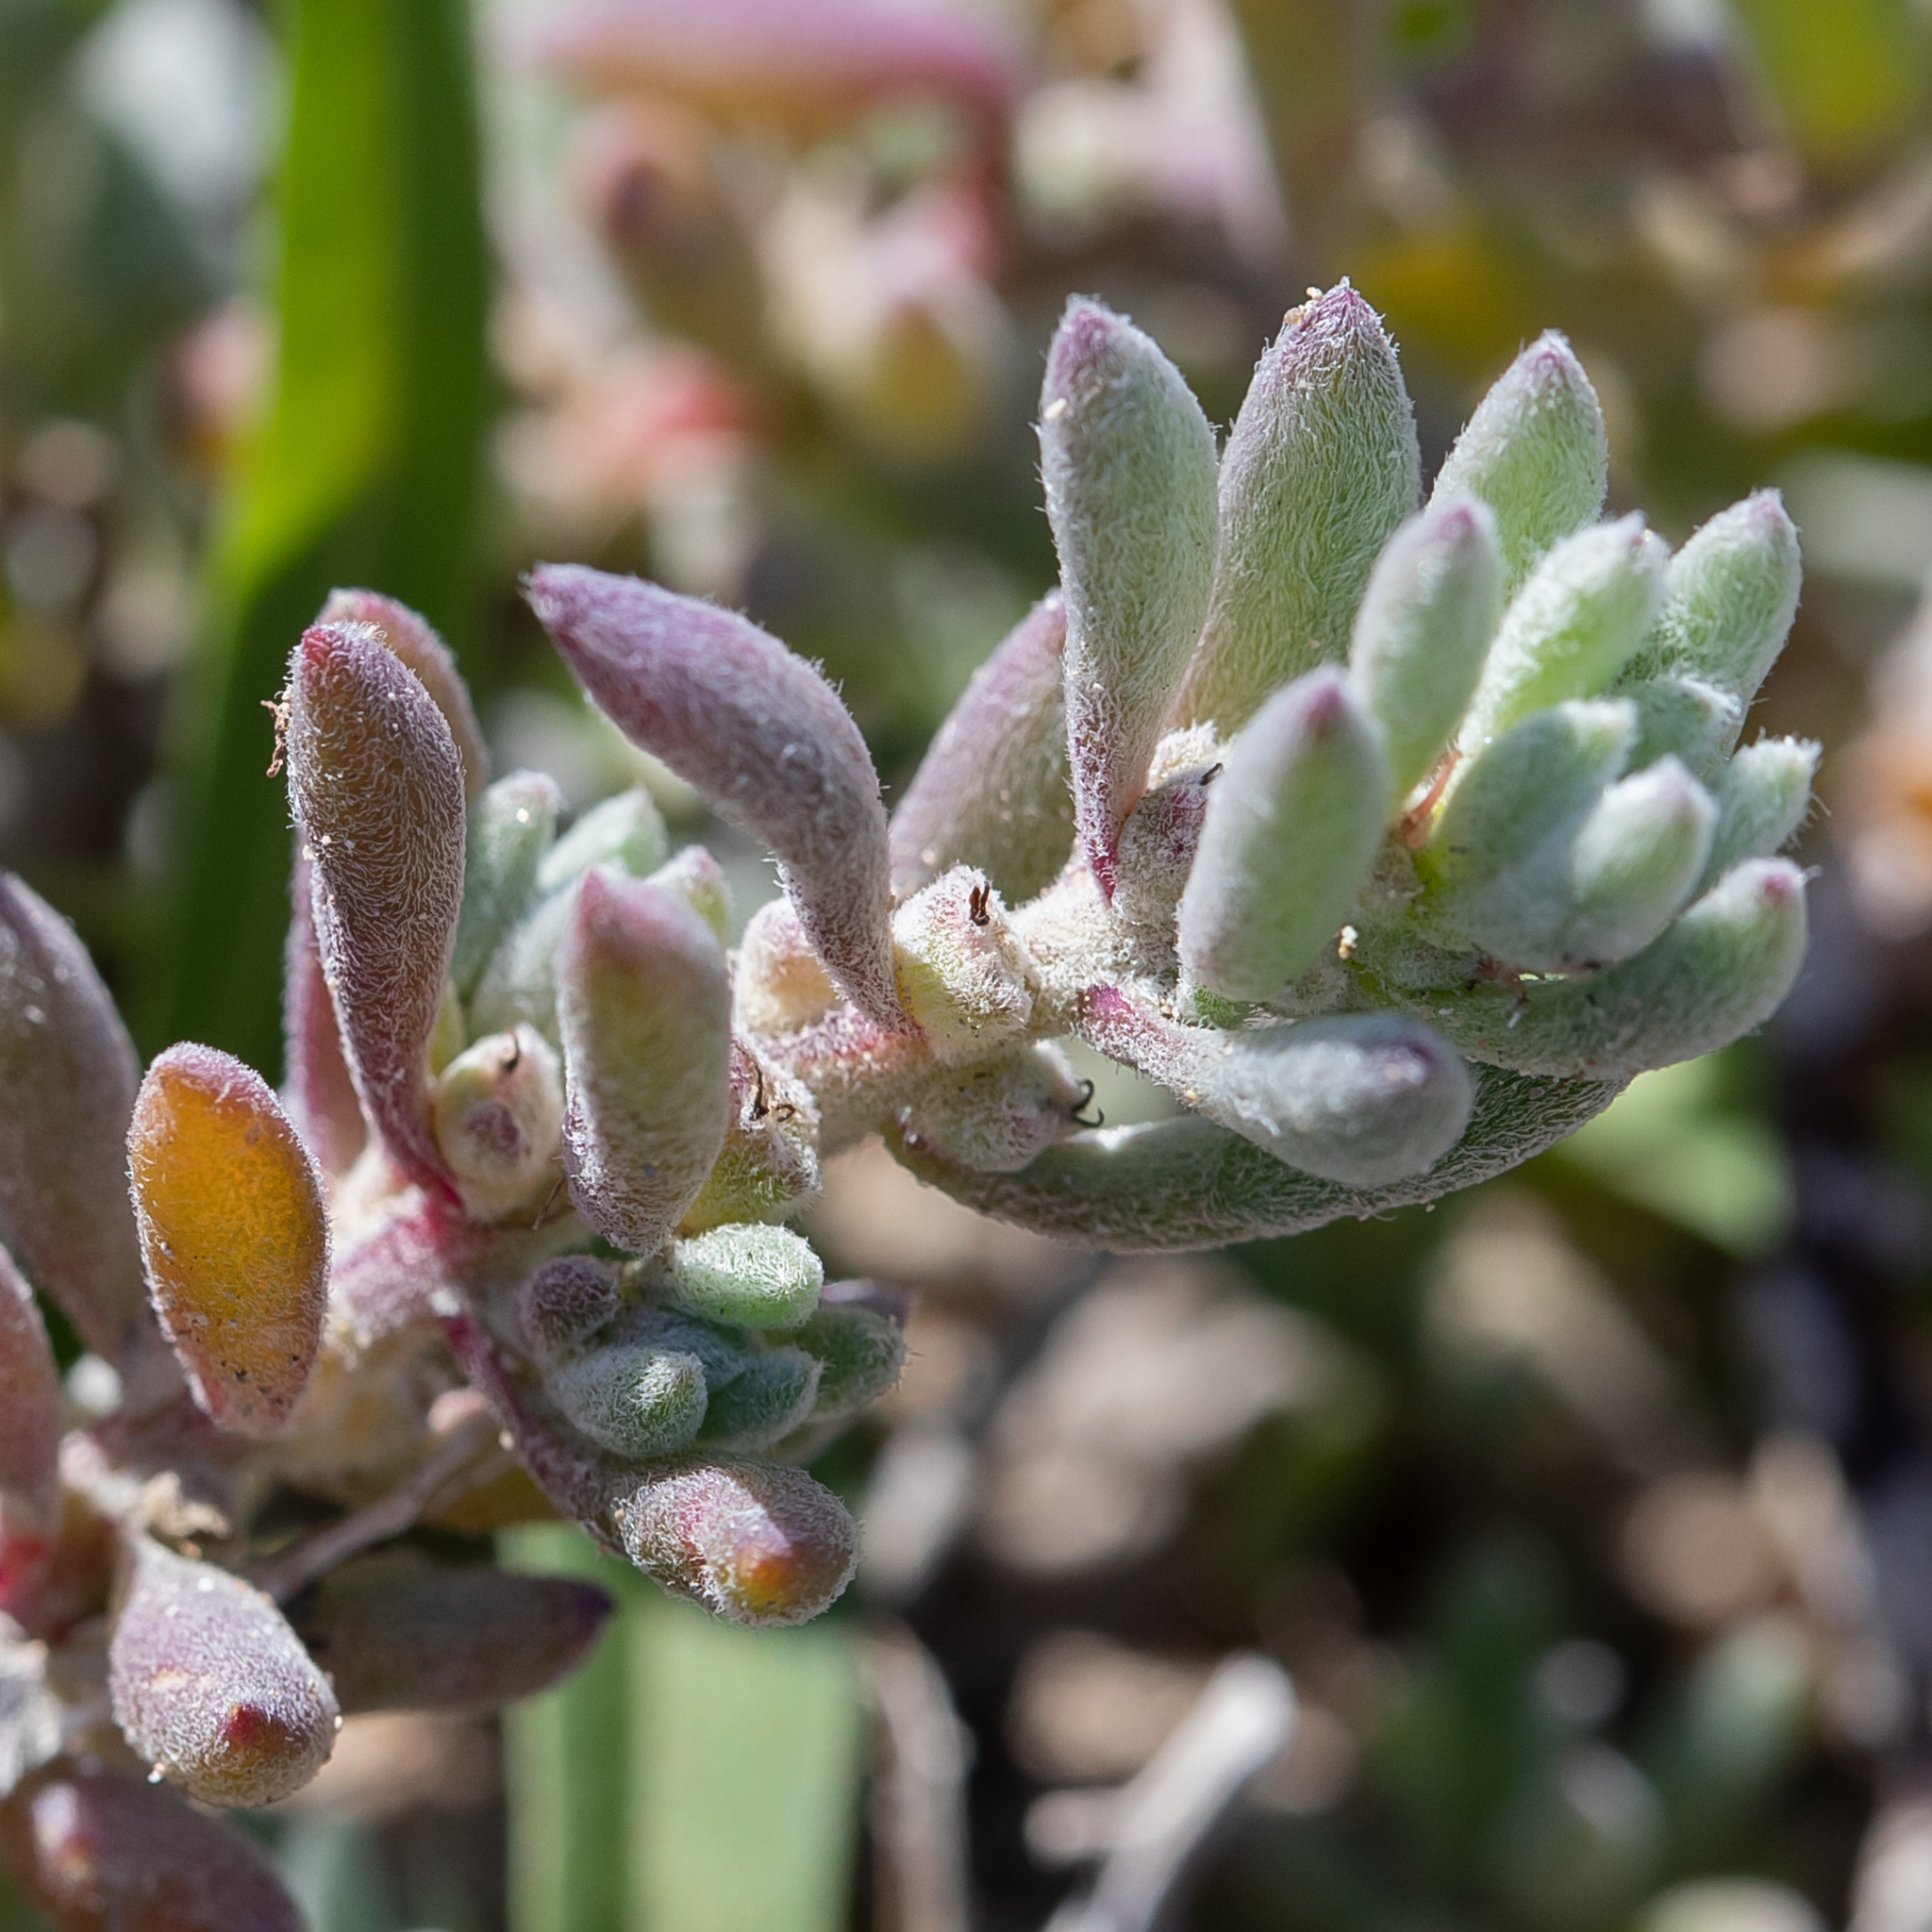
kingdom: Plantae
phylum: Tracheophyta
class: Magnoliopsida
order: Caryophyllales
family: Amaranthaceae
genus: Sclerolaena
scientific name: Sclerolaena uniflora
